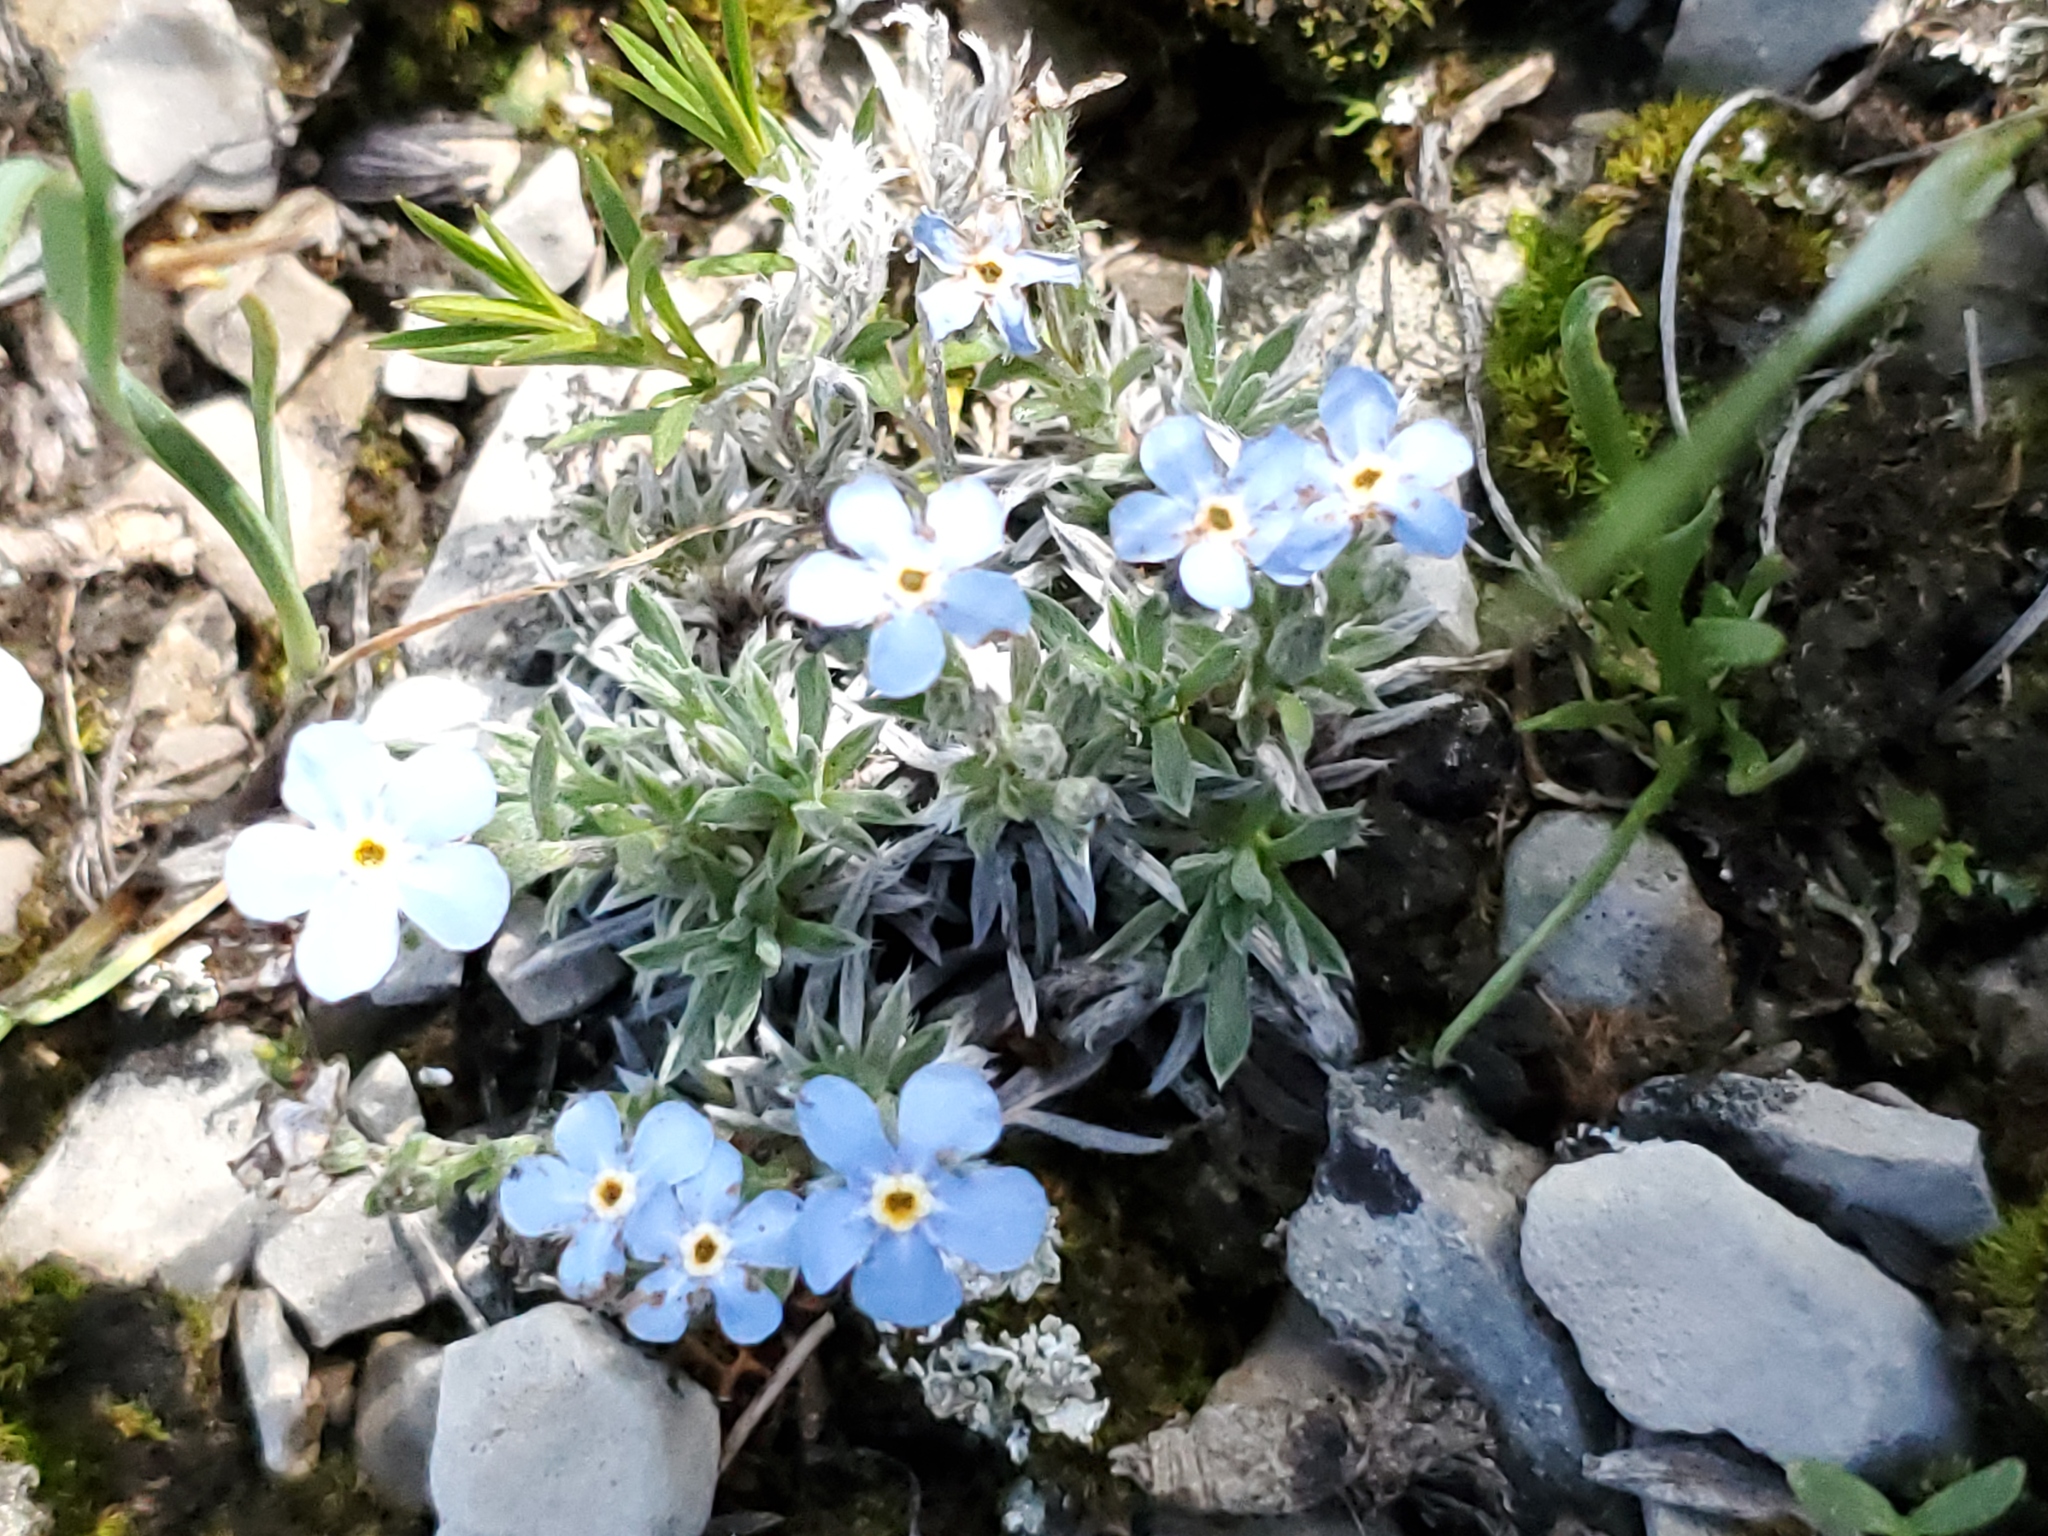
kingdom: Plantae
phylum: Tracheophyta
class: Magnoliopsida
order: Boraginales
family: Boraginaceae
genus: Eritrichium
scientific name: Eritrichium howardii
